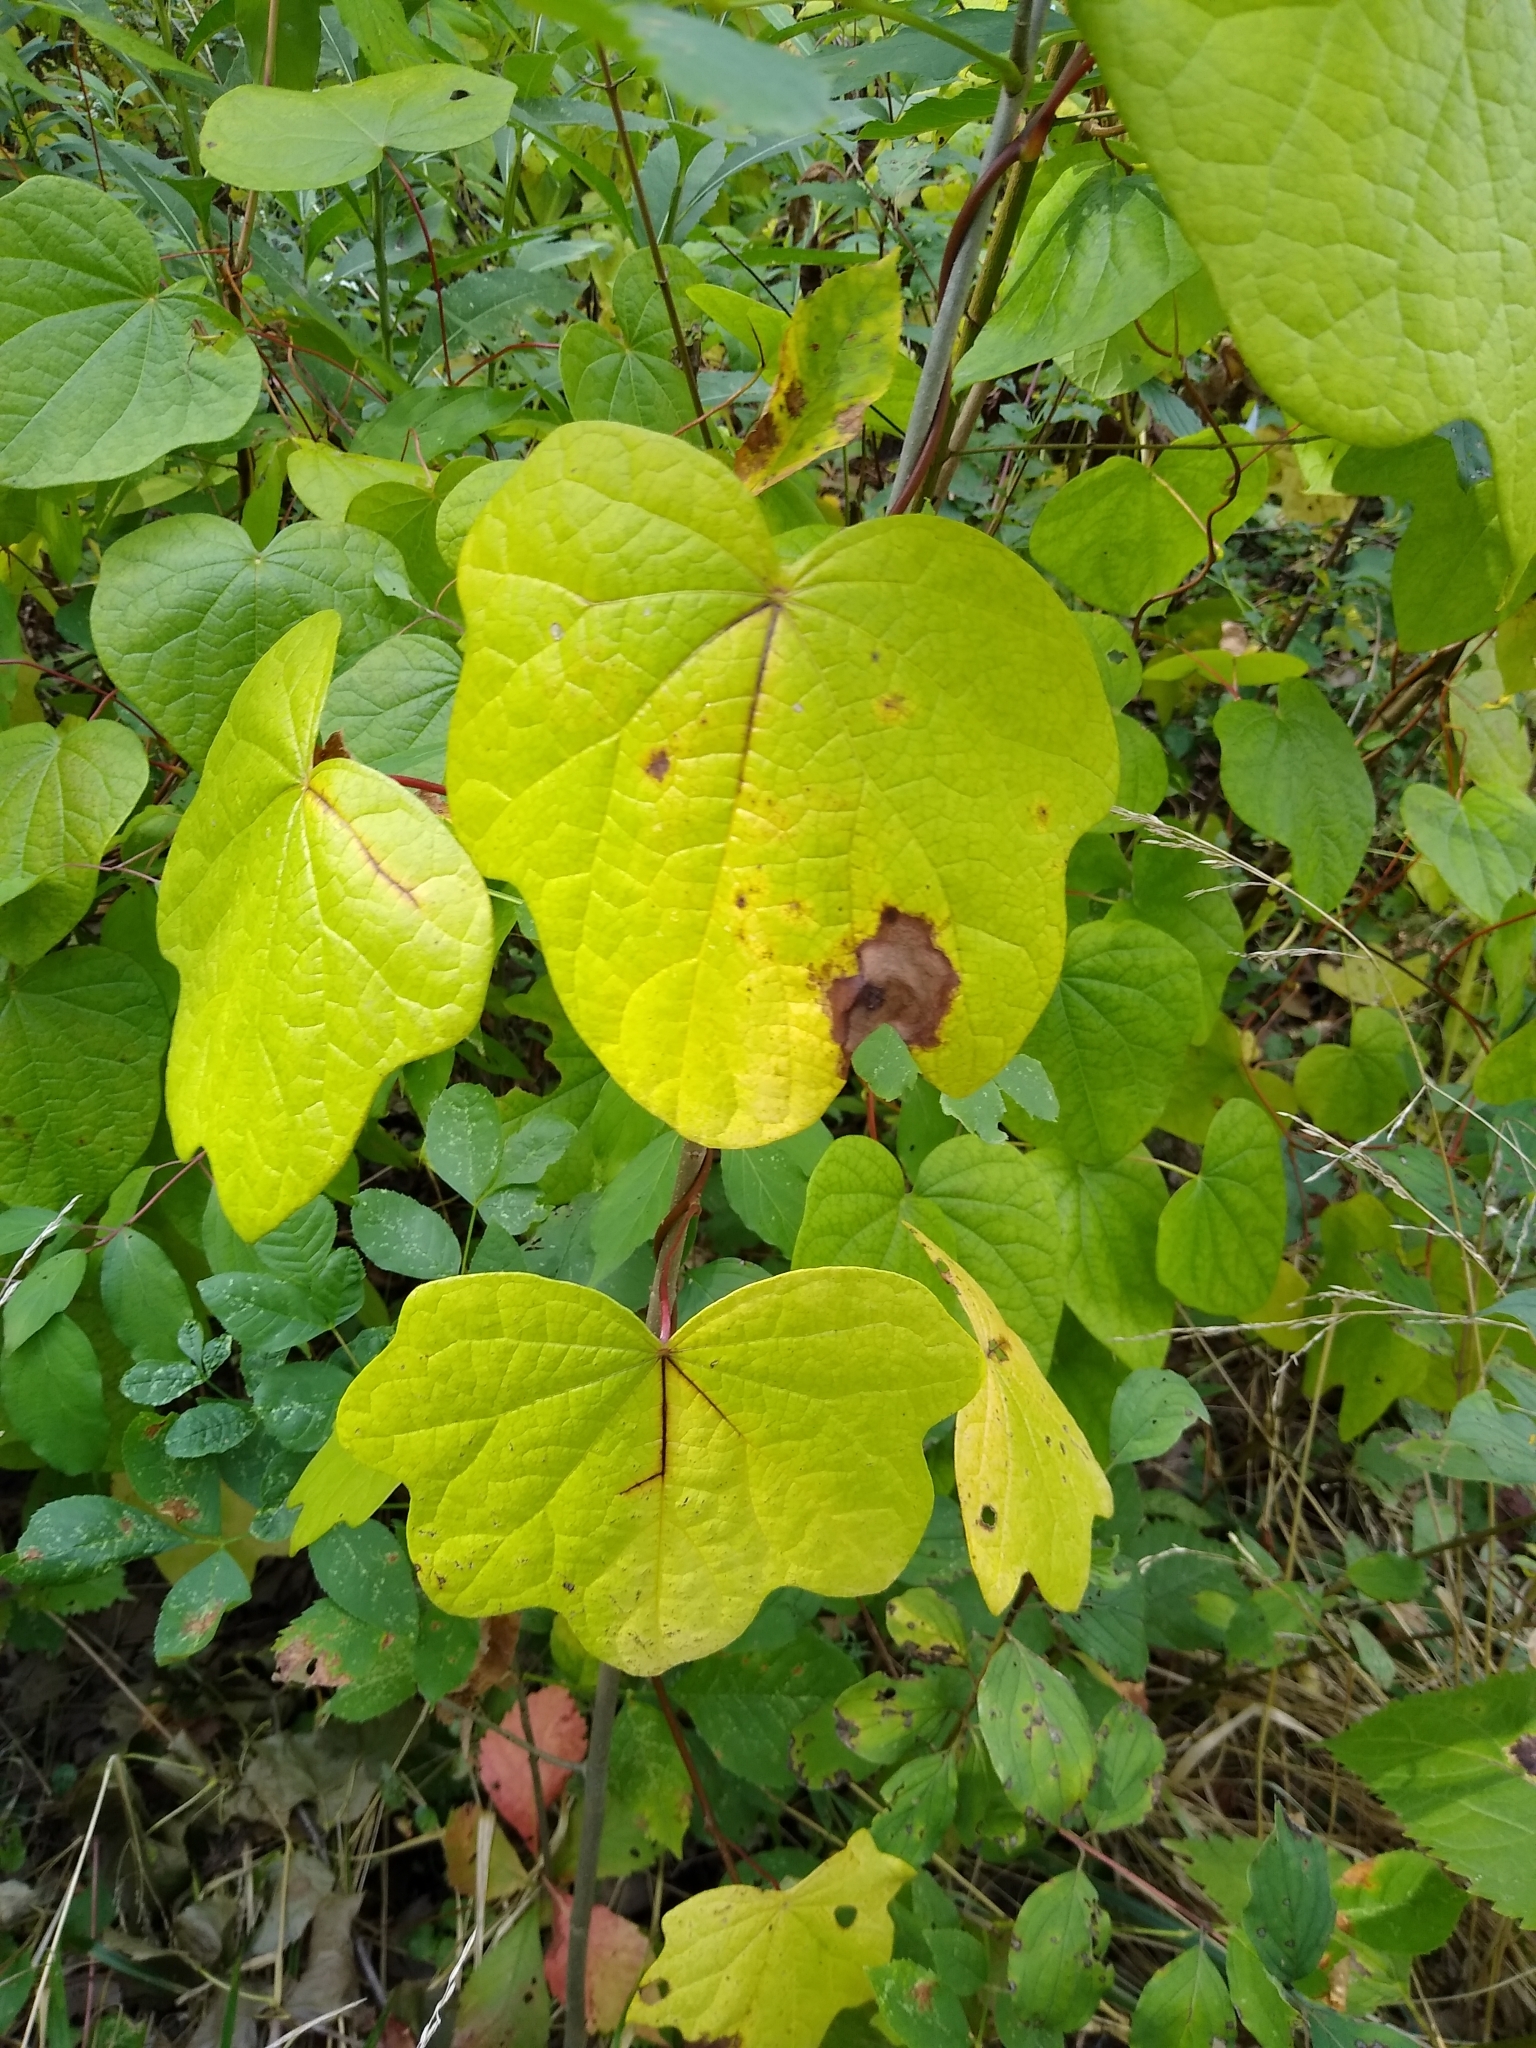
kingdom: Plantae
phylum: Tracheophyta
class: Magnoliopsida
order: Ranunculales
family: Menispermaceae
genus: Menispermum
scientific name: Menispermum canadense
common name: Moonseed
